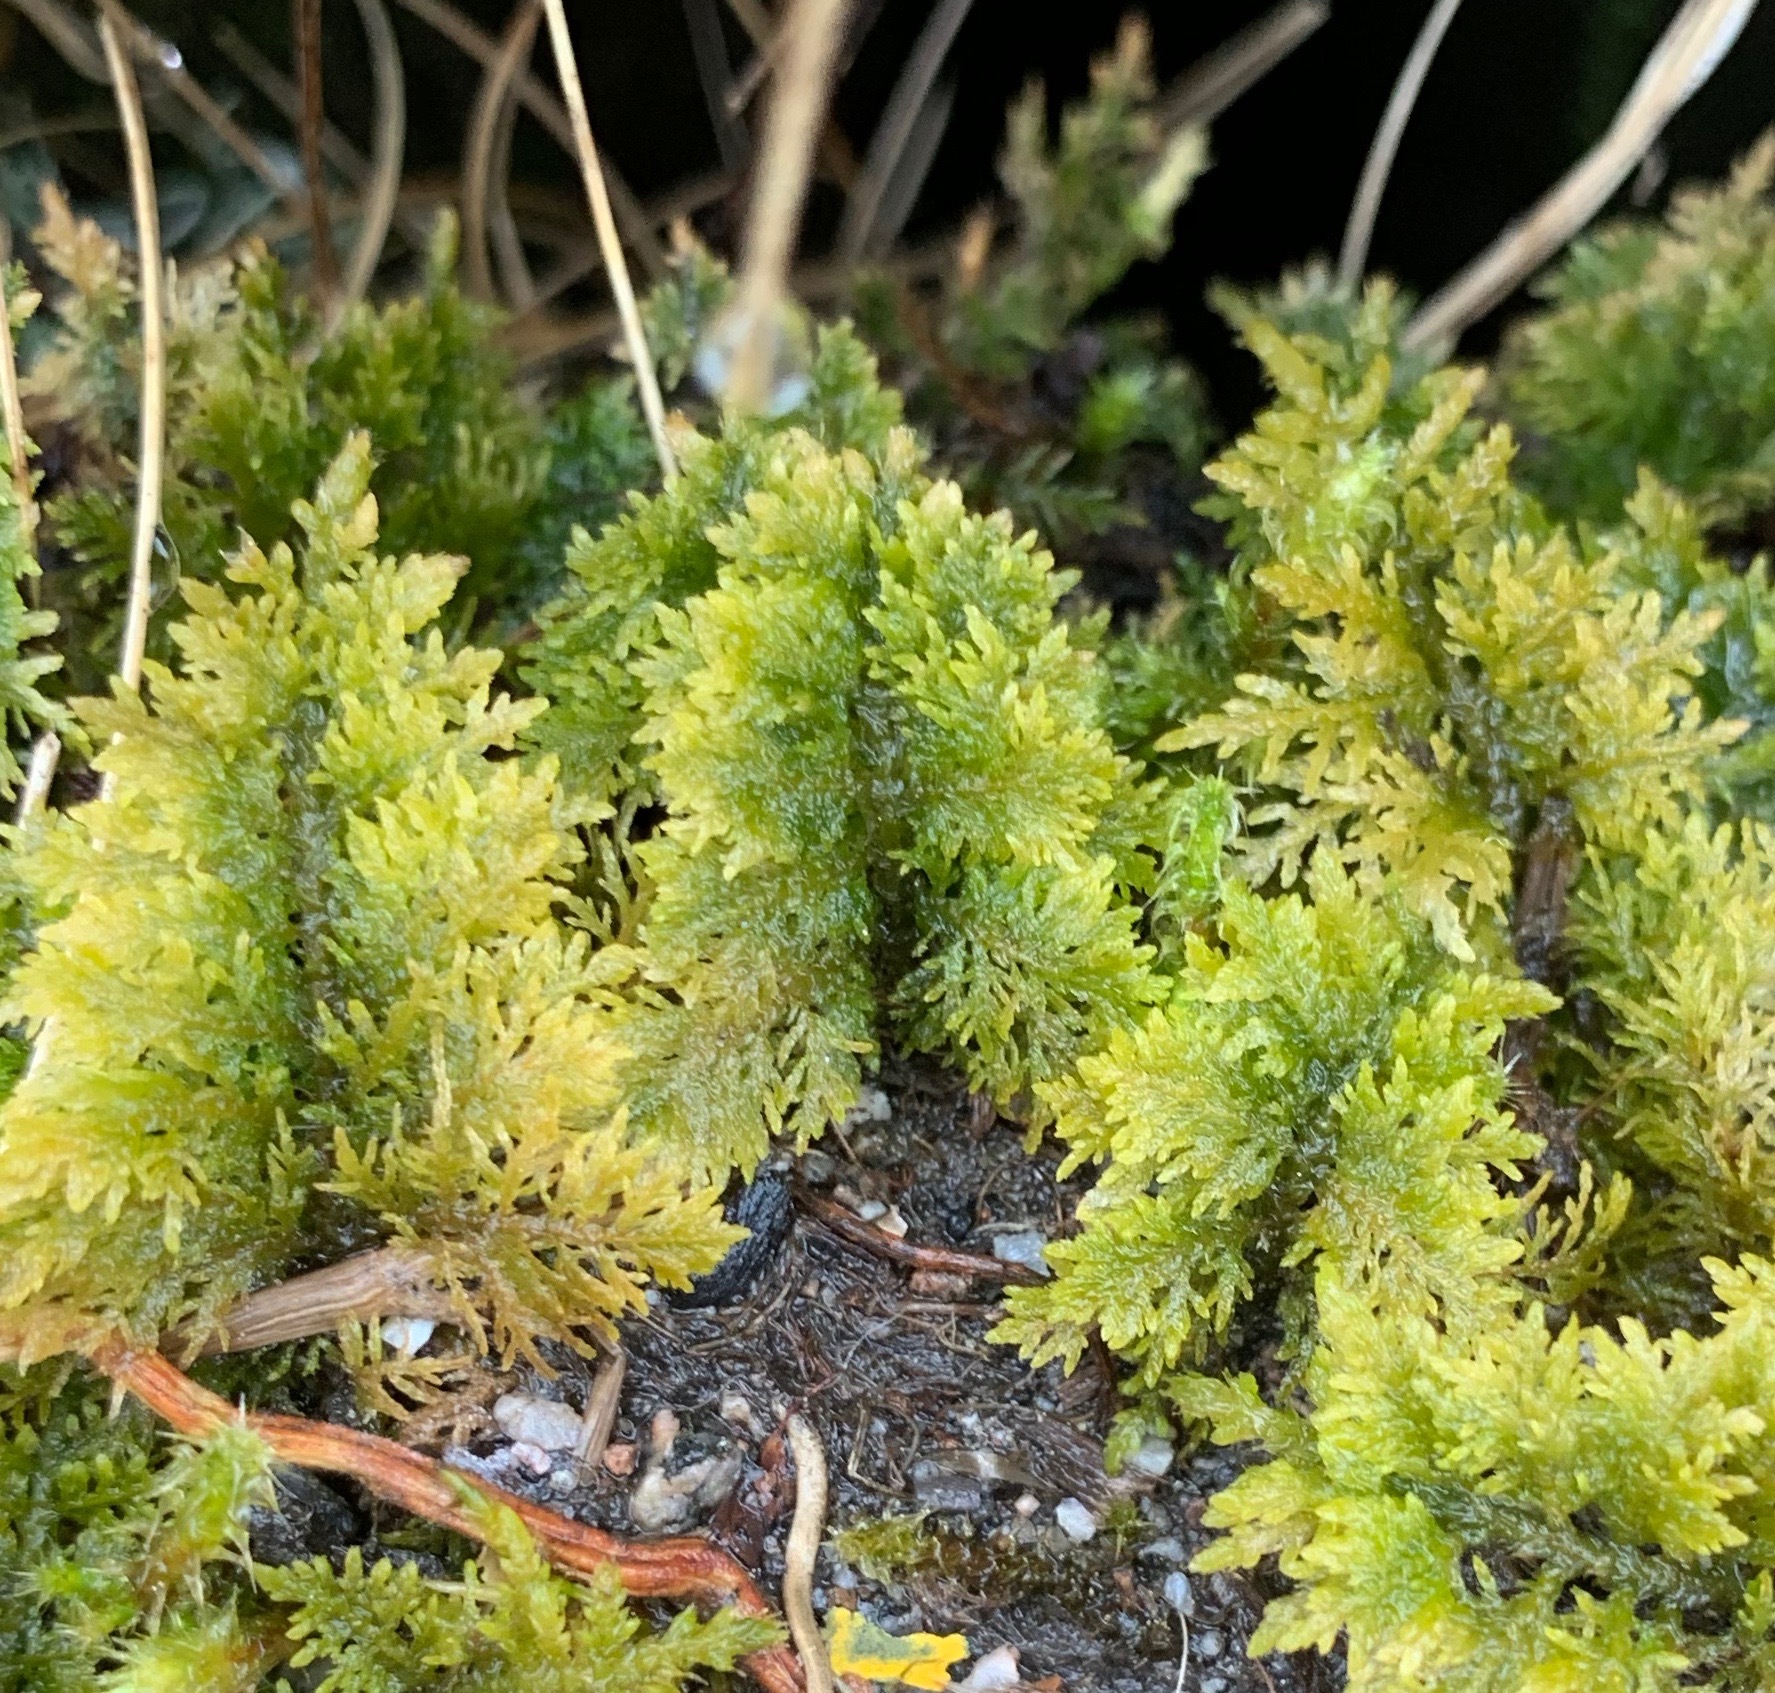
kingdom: Plantae
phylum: Bryophyta
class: Bryopsida
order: Hypnales
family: Thuidiaceae
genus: Thuidium
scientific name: Thuidium tamariscinum
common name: Common tamarisk-moss
